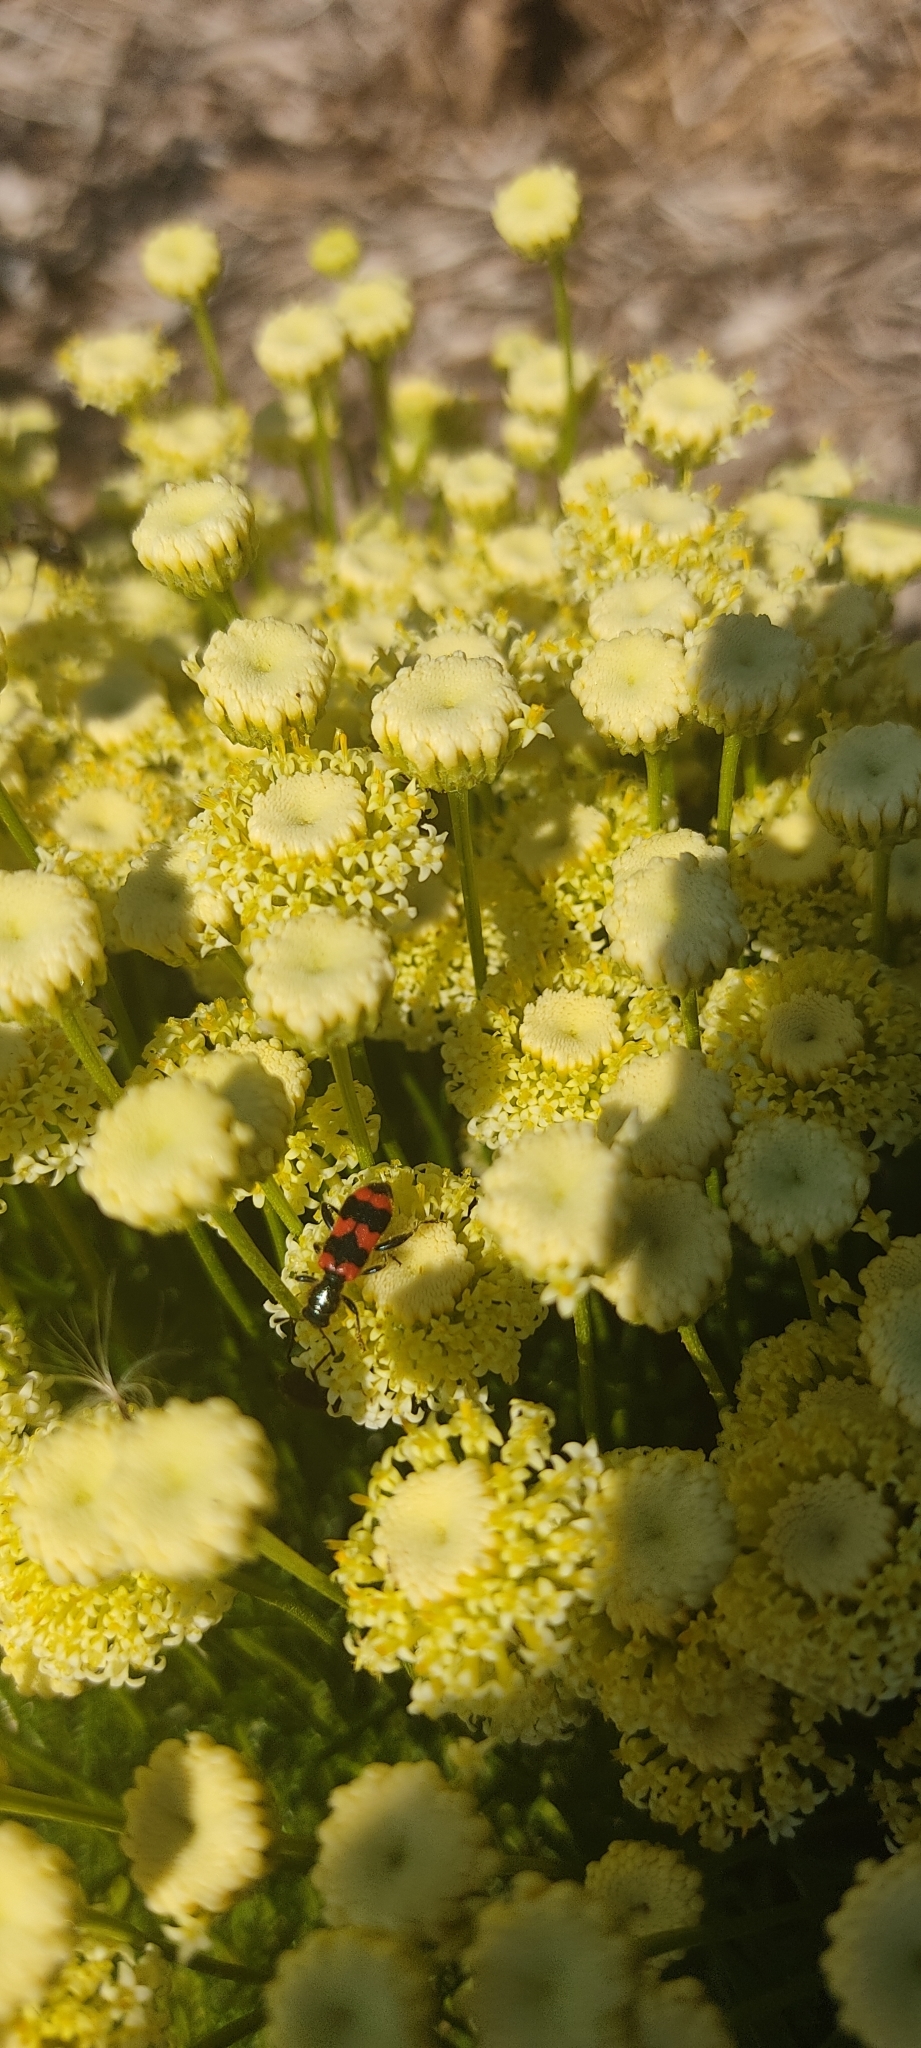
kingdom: Animalia
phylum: Arthropoda
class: Insecta
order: Coleoptera
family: Cleridae
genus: Trichodes
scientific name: Trichodes apiarius
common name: Bee-eating beetle
